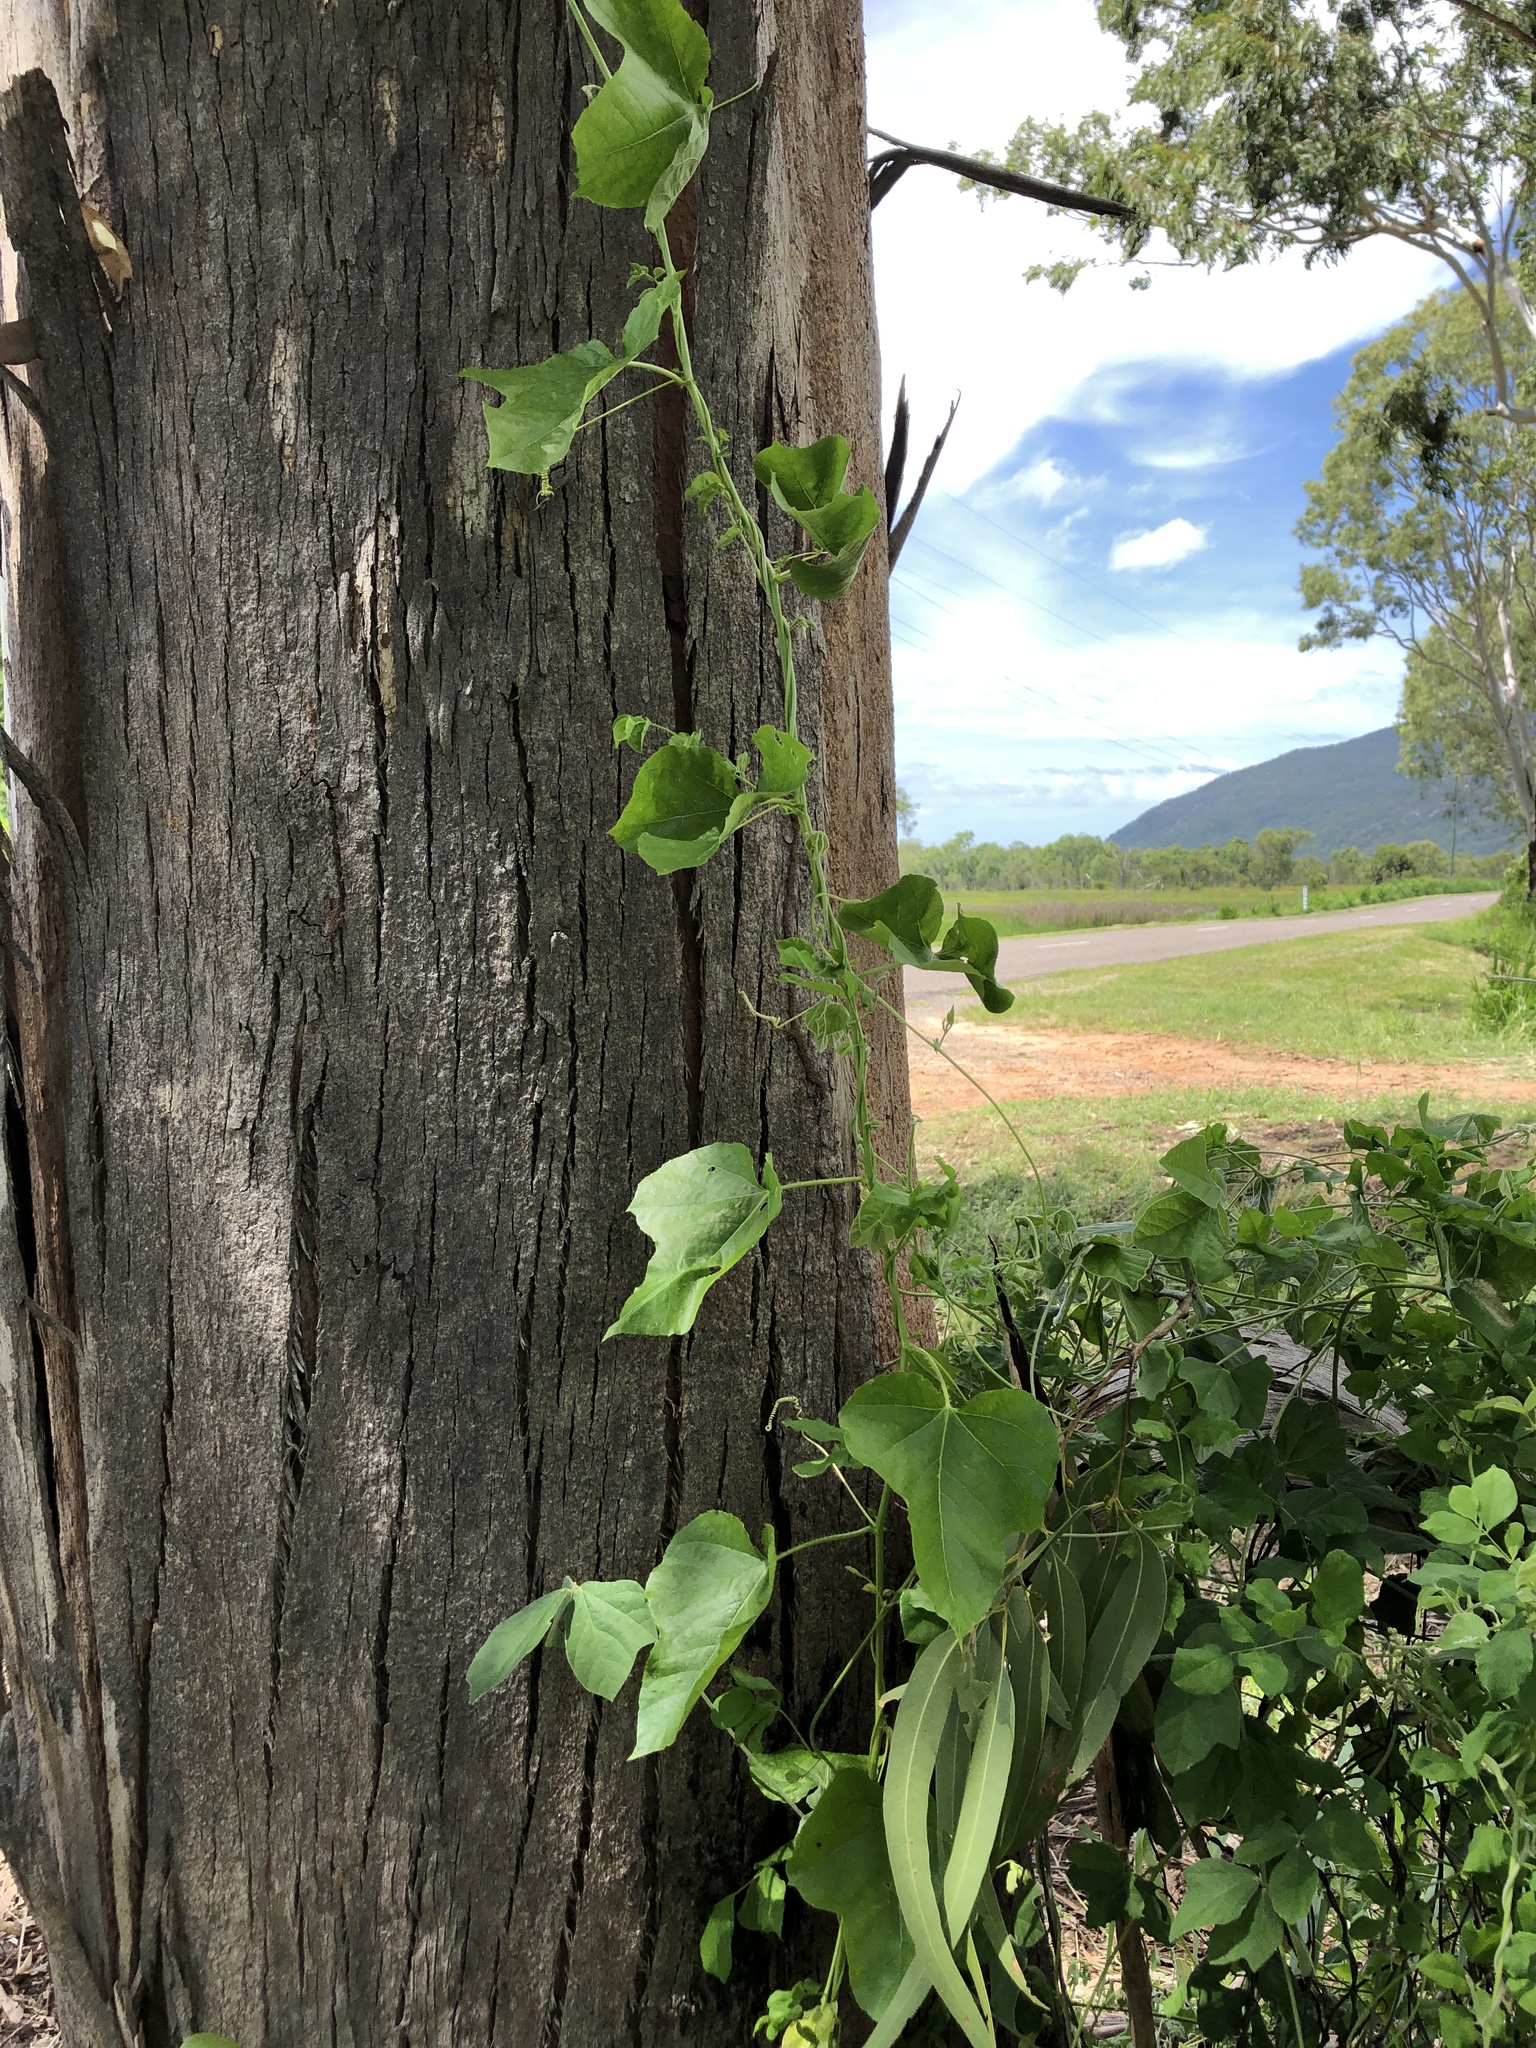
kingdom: Plantae
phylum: Tracheophyta
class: Magnoliopsida
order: Malpighiales
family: Passifloraceae
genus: Passiflora
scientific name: Passiflora foetida
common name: Fetid passionflower
